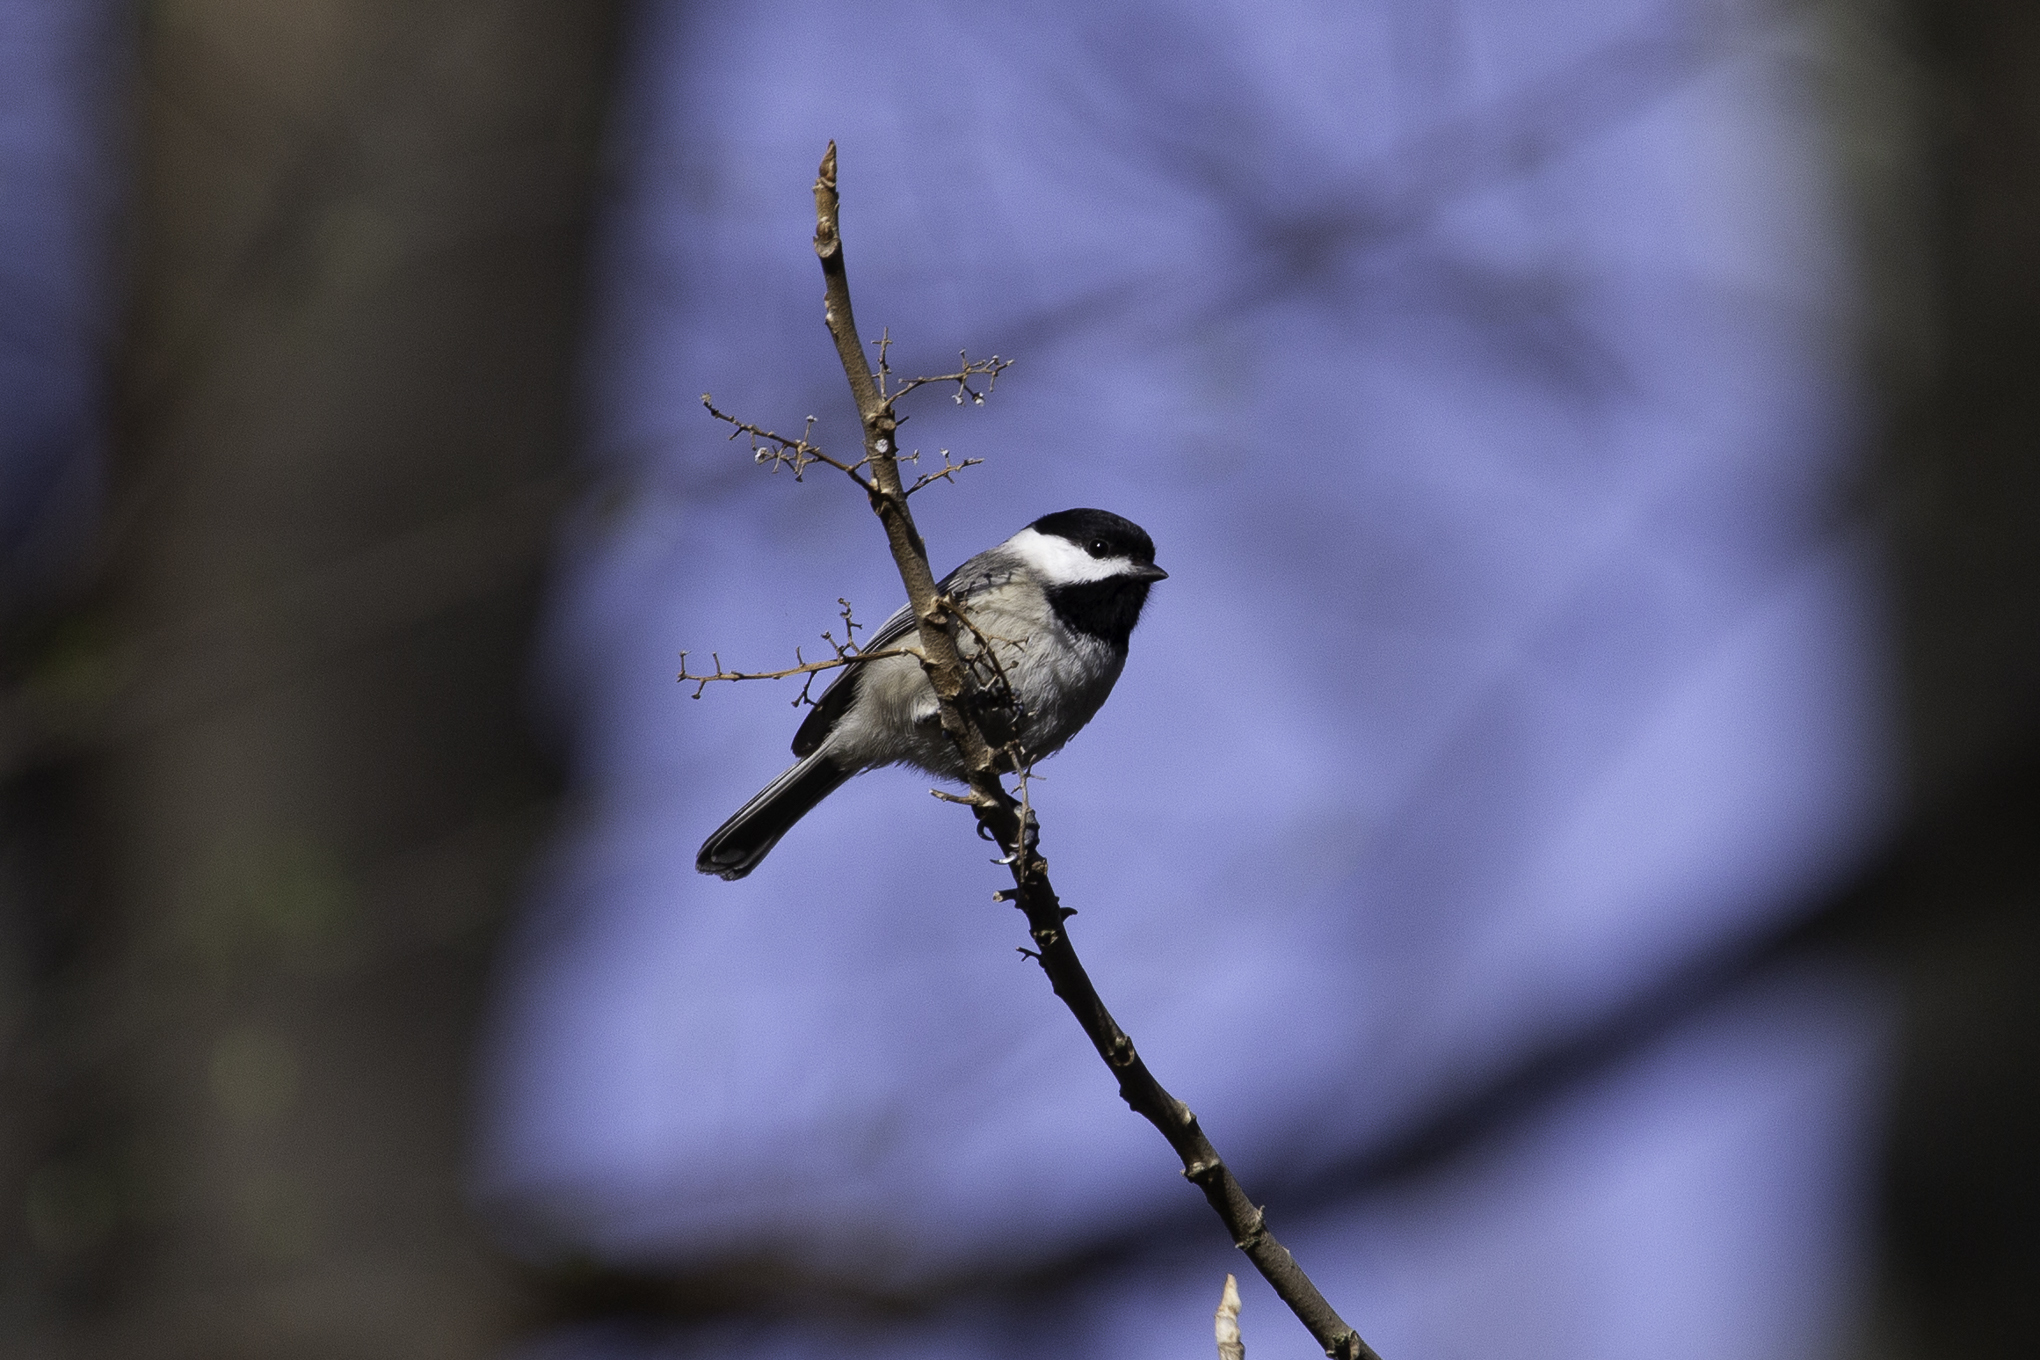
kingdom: Animalia
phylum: Chordata
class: Aves
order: Passeriformes
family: Paridae
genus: Poecile
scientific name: Poecile carolinensis
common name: Carolina chickadee
